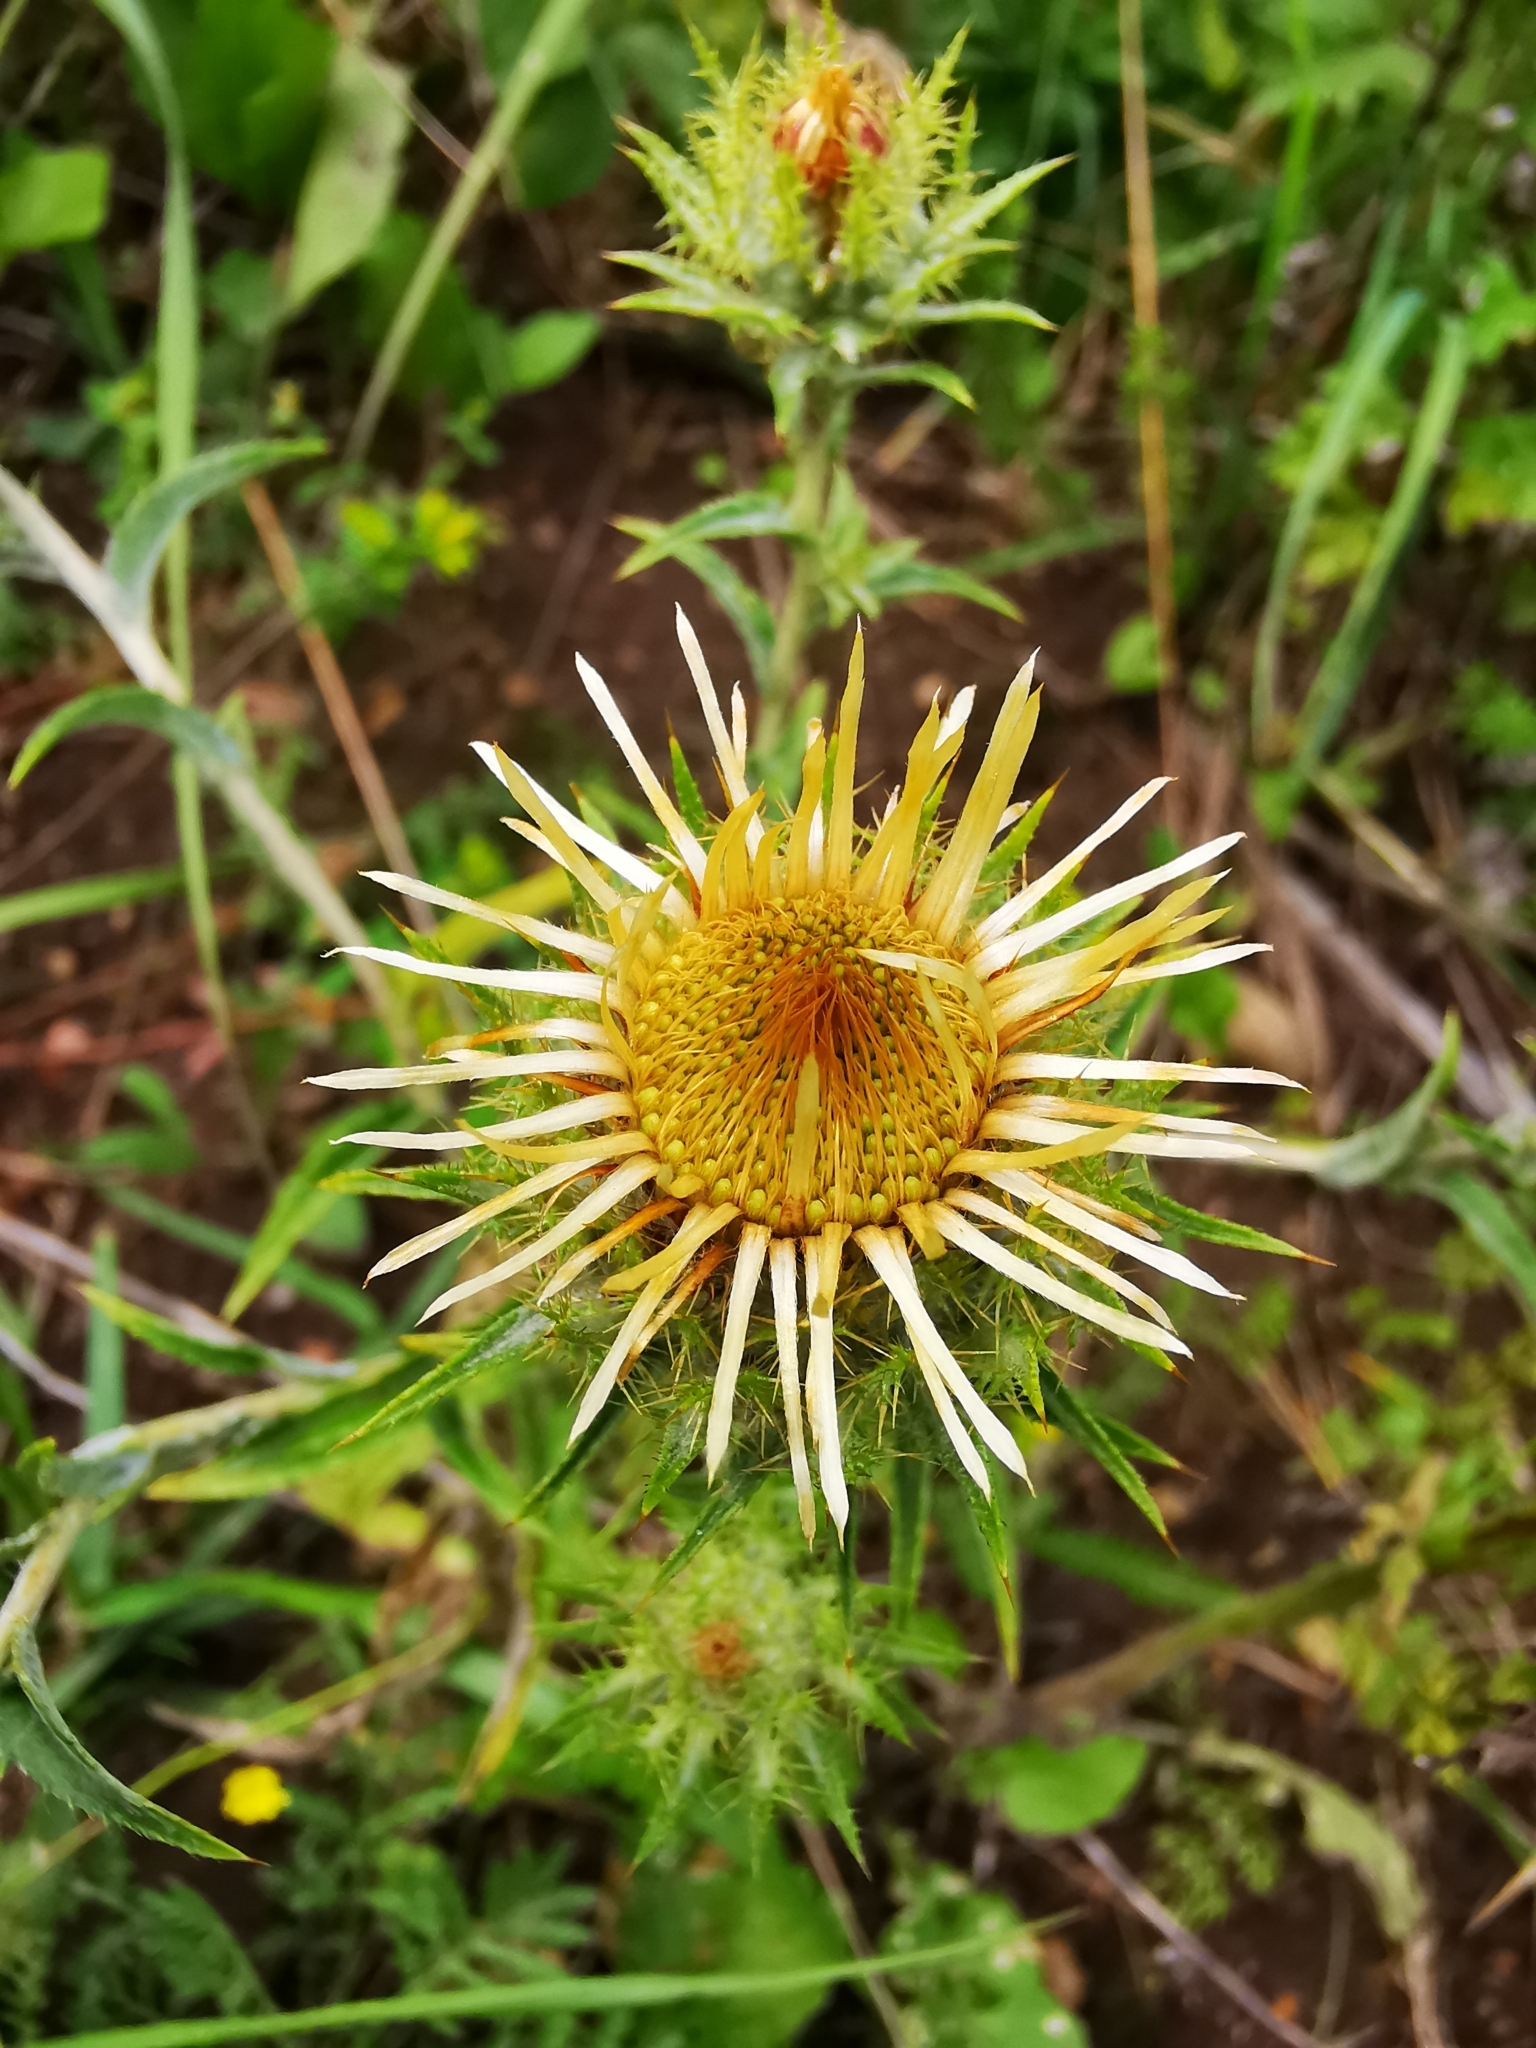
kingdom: Plantae
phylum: Tracheophyta
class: Magnoliopsida
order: Asterales
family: Asteraceae
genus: Carlina
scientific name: Carlina biebersteinii
